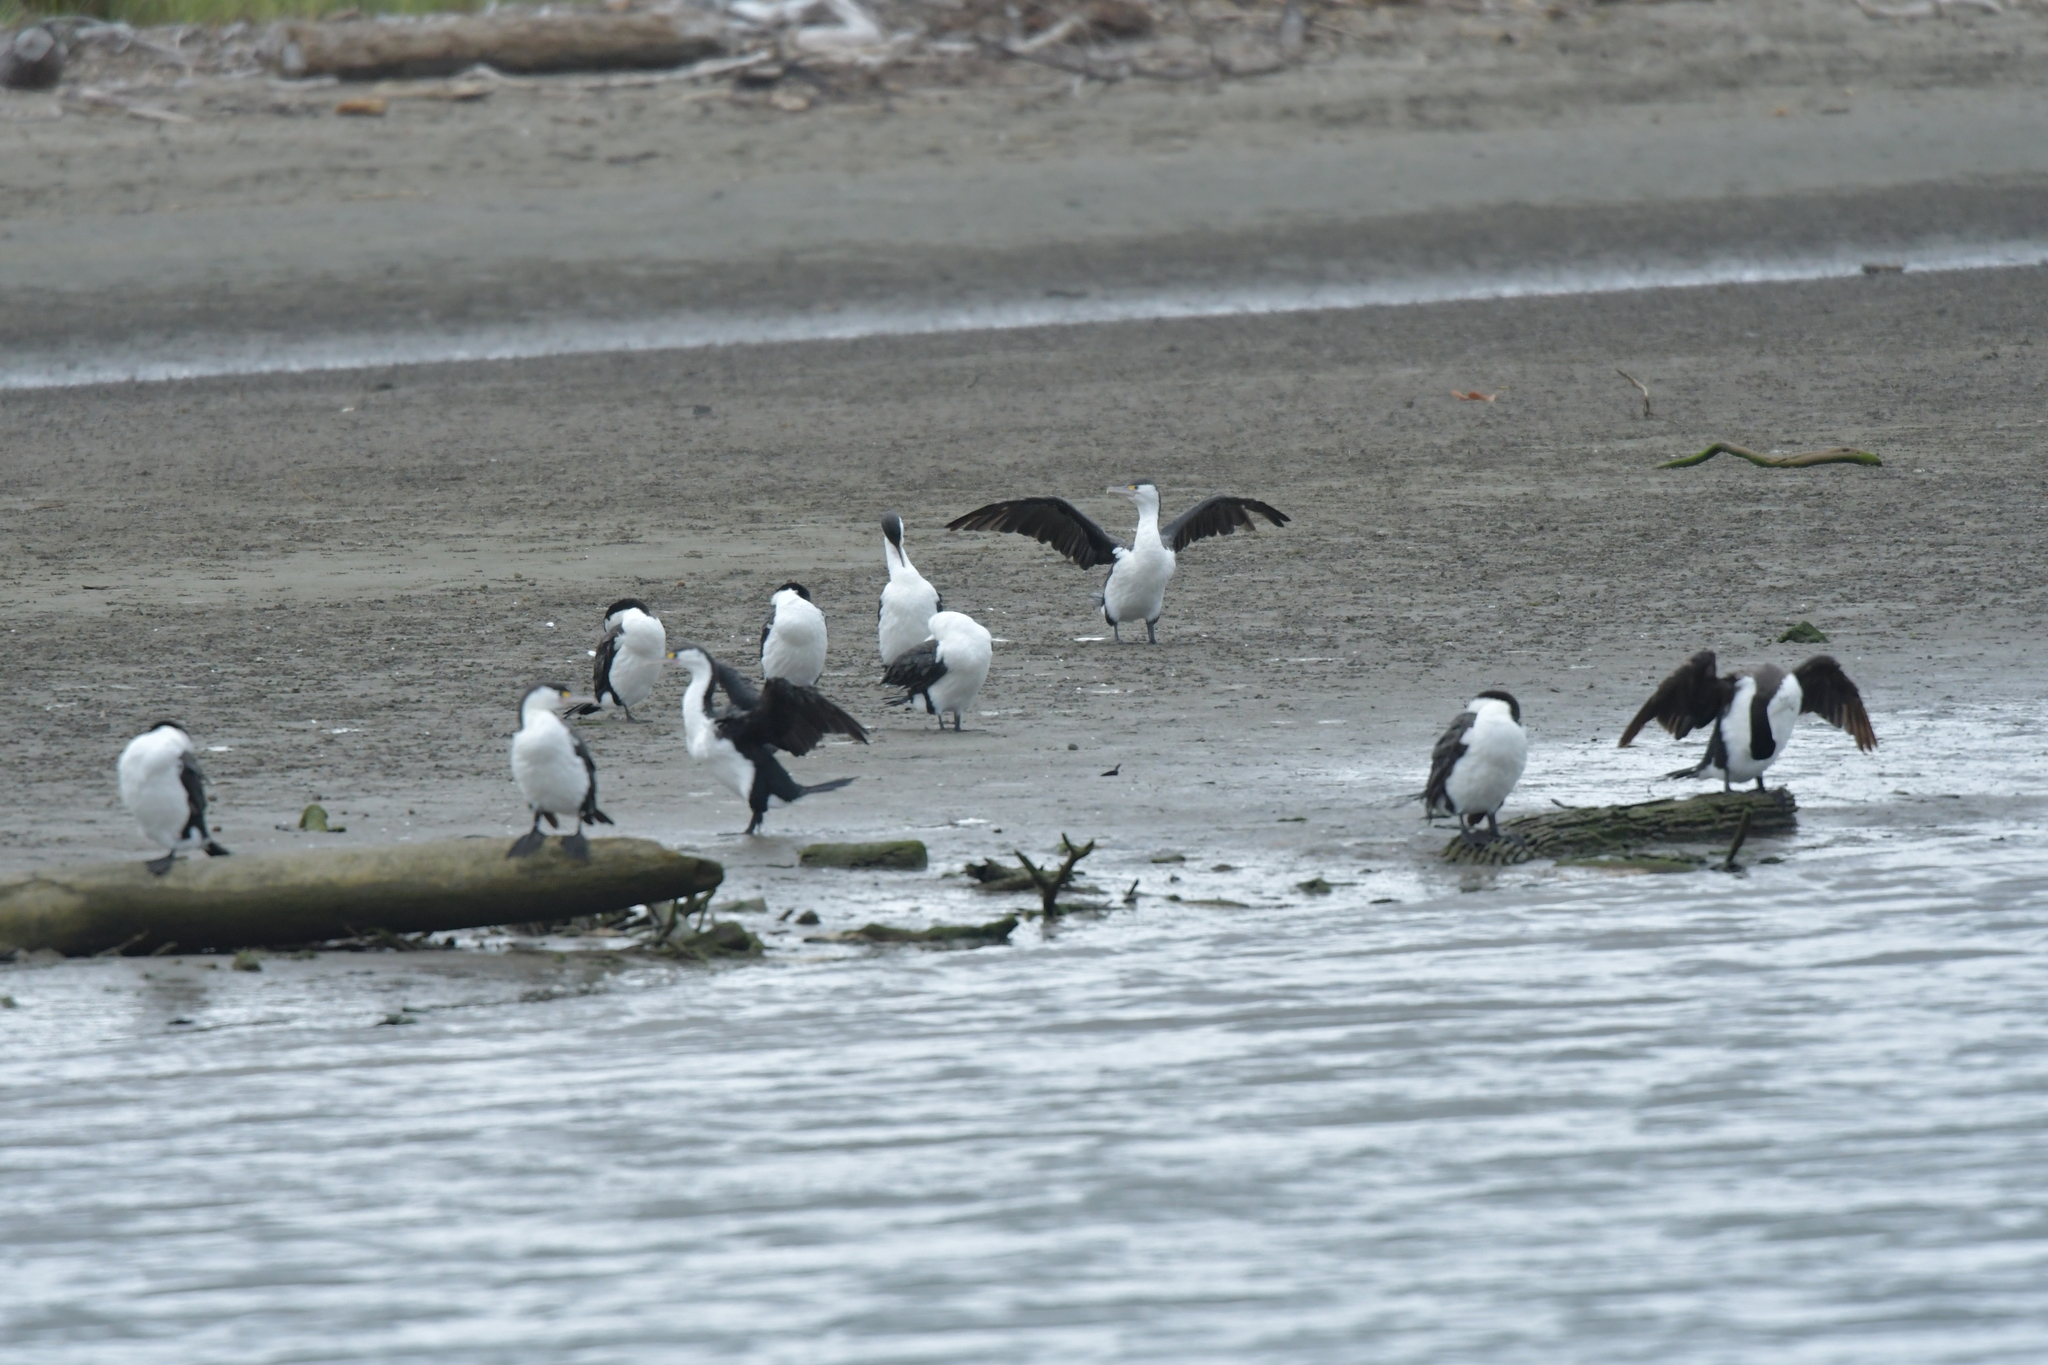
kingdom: Animalia
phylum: Chordata
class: Aves
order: Suliformes
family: Phalacrocoracidae
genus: Phalacrocorax
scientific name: Phalacrocorax varius
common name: Pied cormorant
